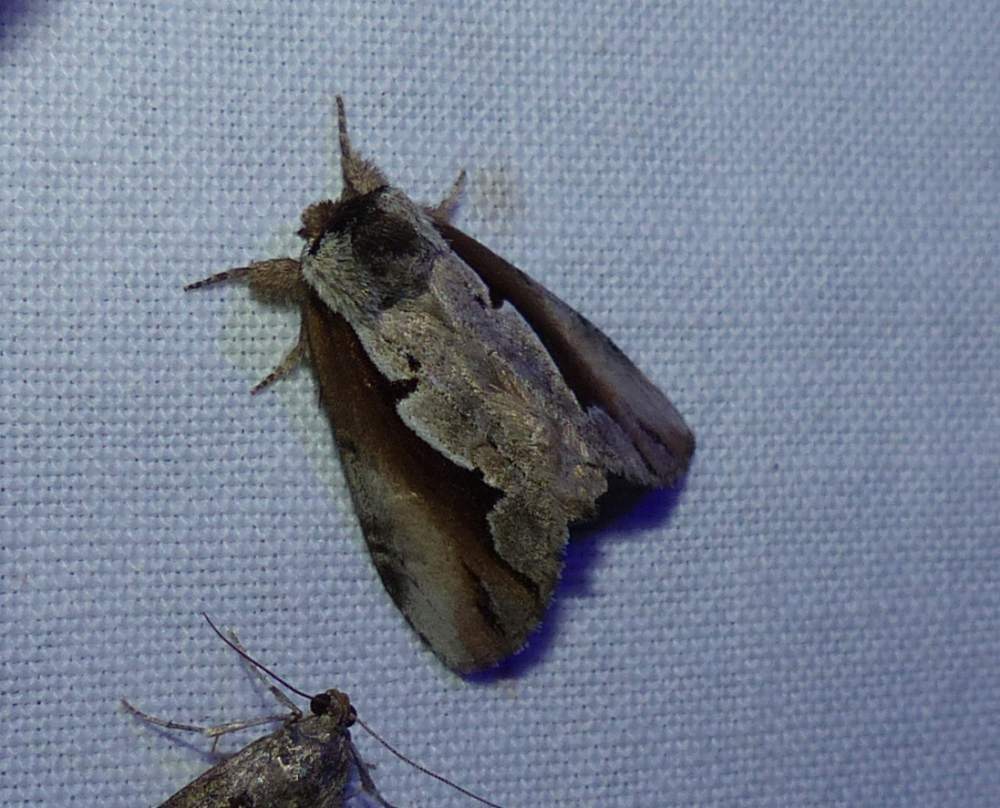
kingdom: Animalia
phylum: Arthropoda
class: Insecta
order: Lepidoptera
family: Notodontidae
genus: Nerice
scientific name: Nerice bidentata
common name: Double-toothed prominent
